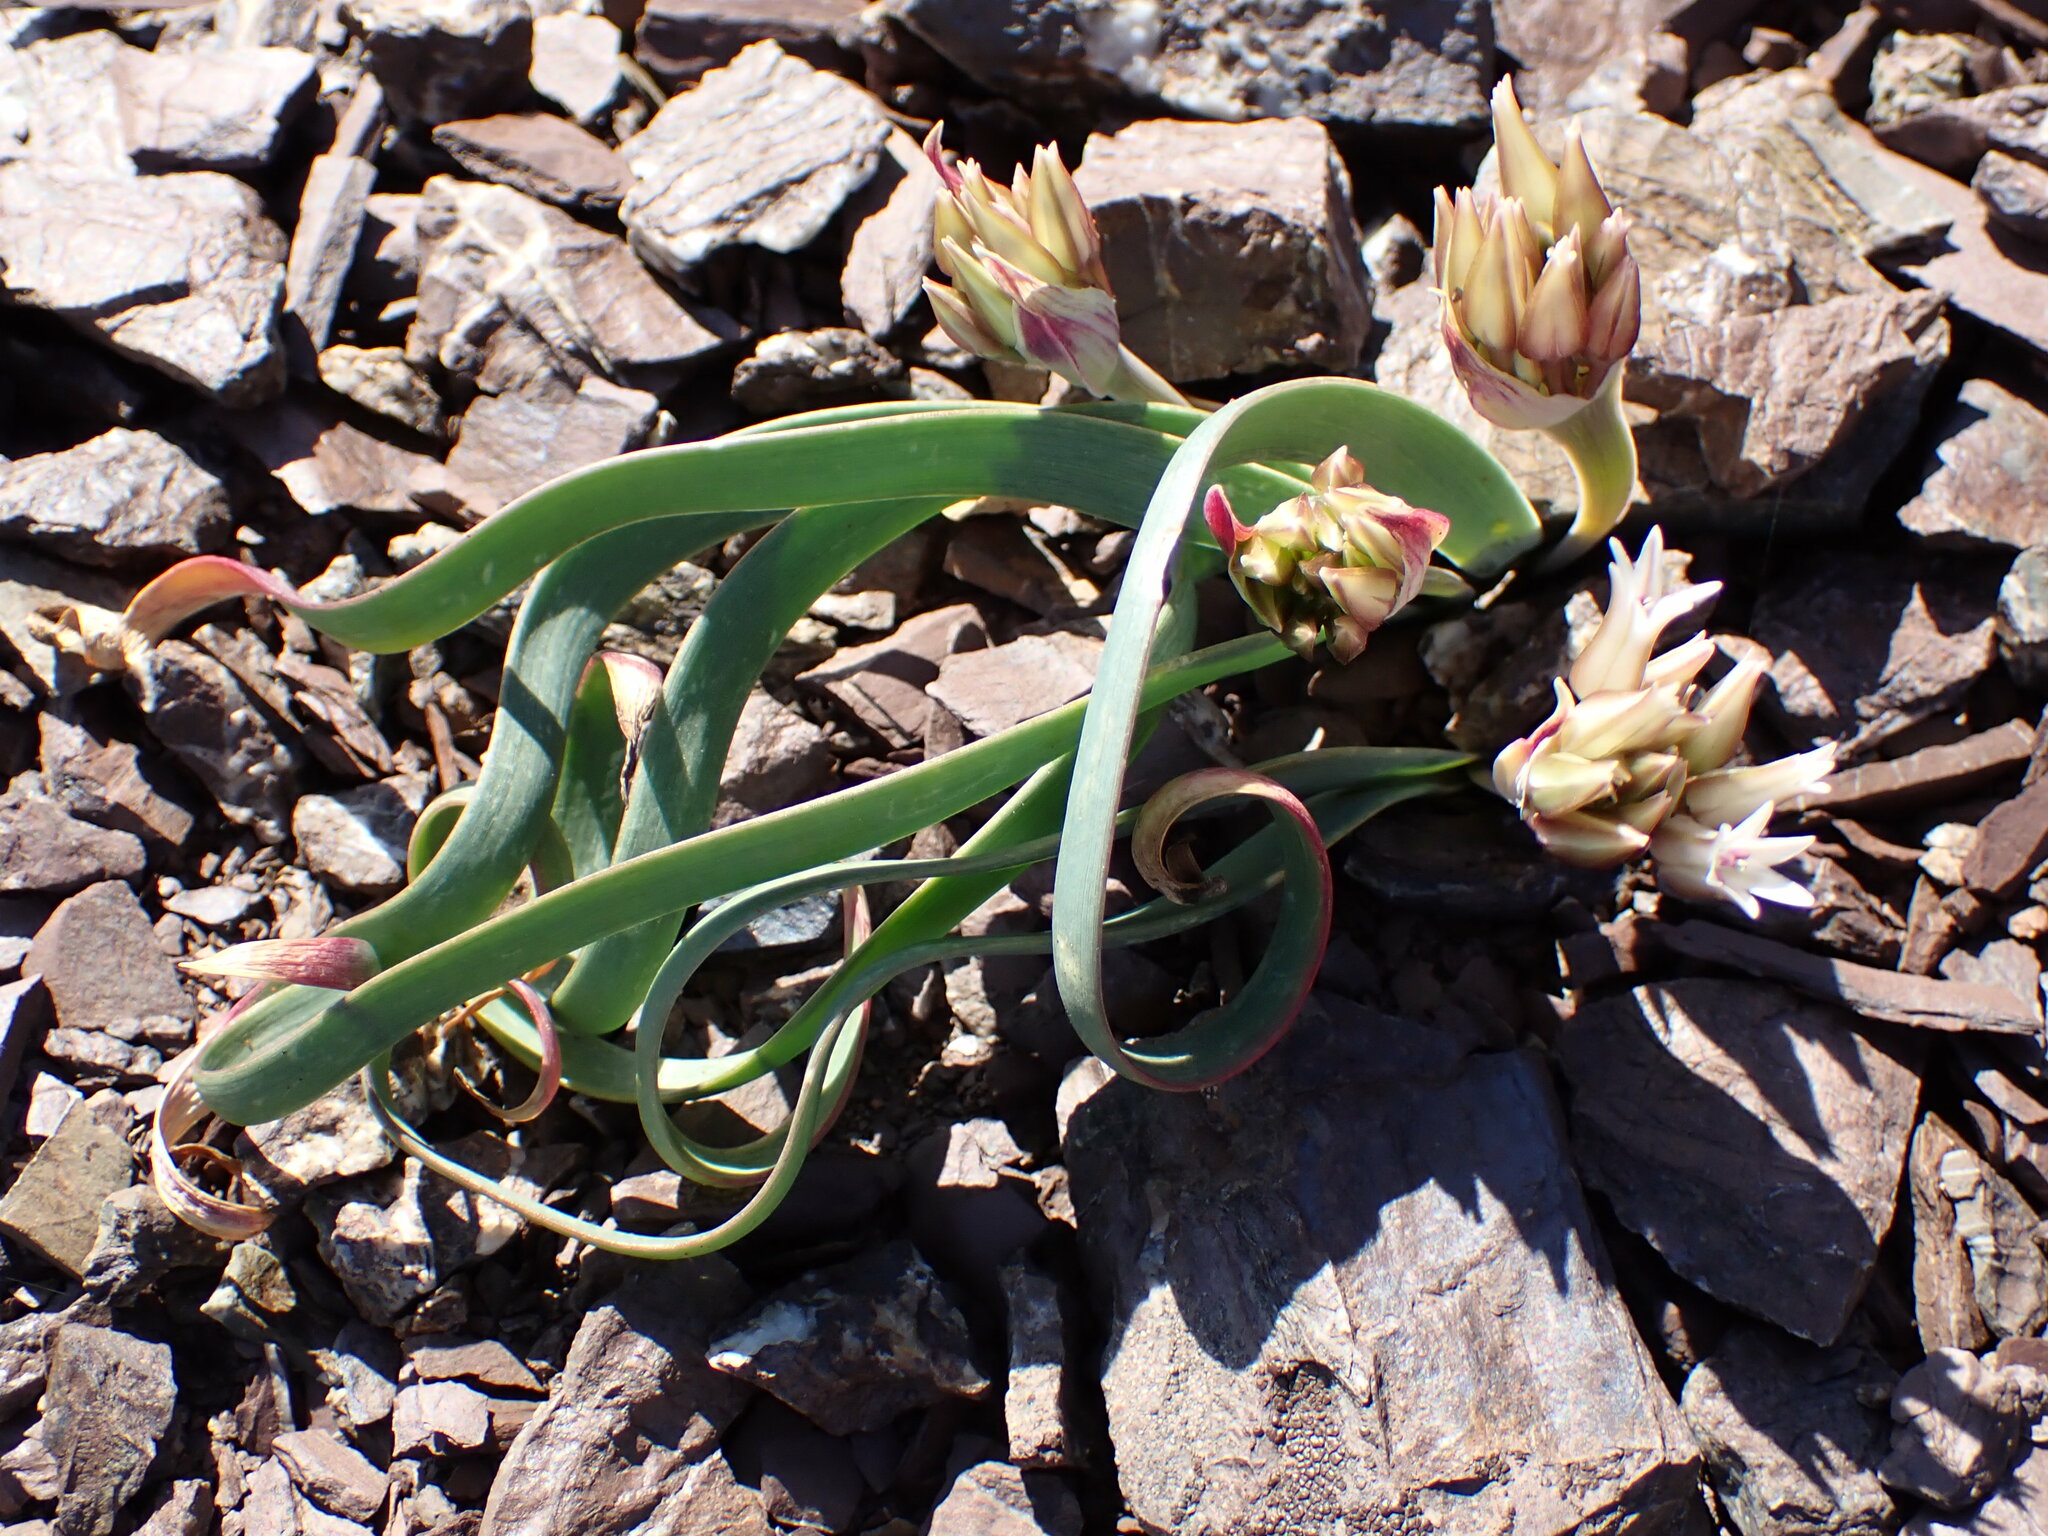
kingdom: Plantae
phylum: Tracheophyta
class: Liliopsida
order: Asparagales
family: Amaryllidaceae
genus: Allium
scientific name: Allium falcifolium
